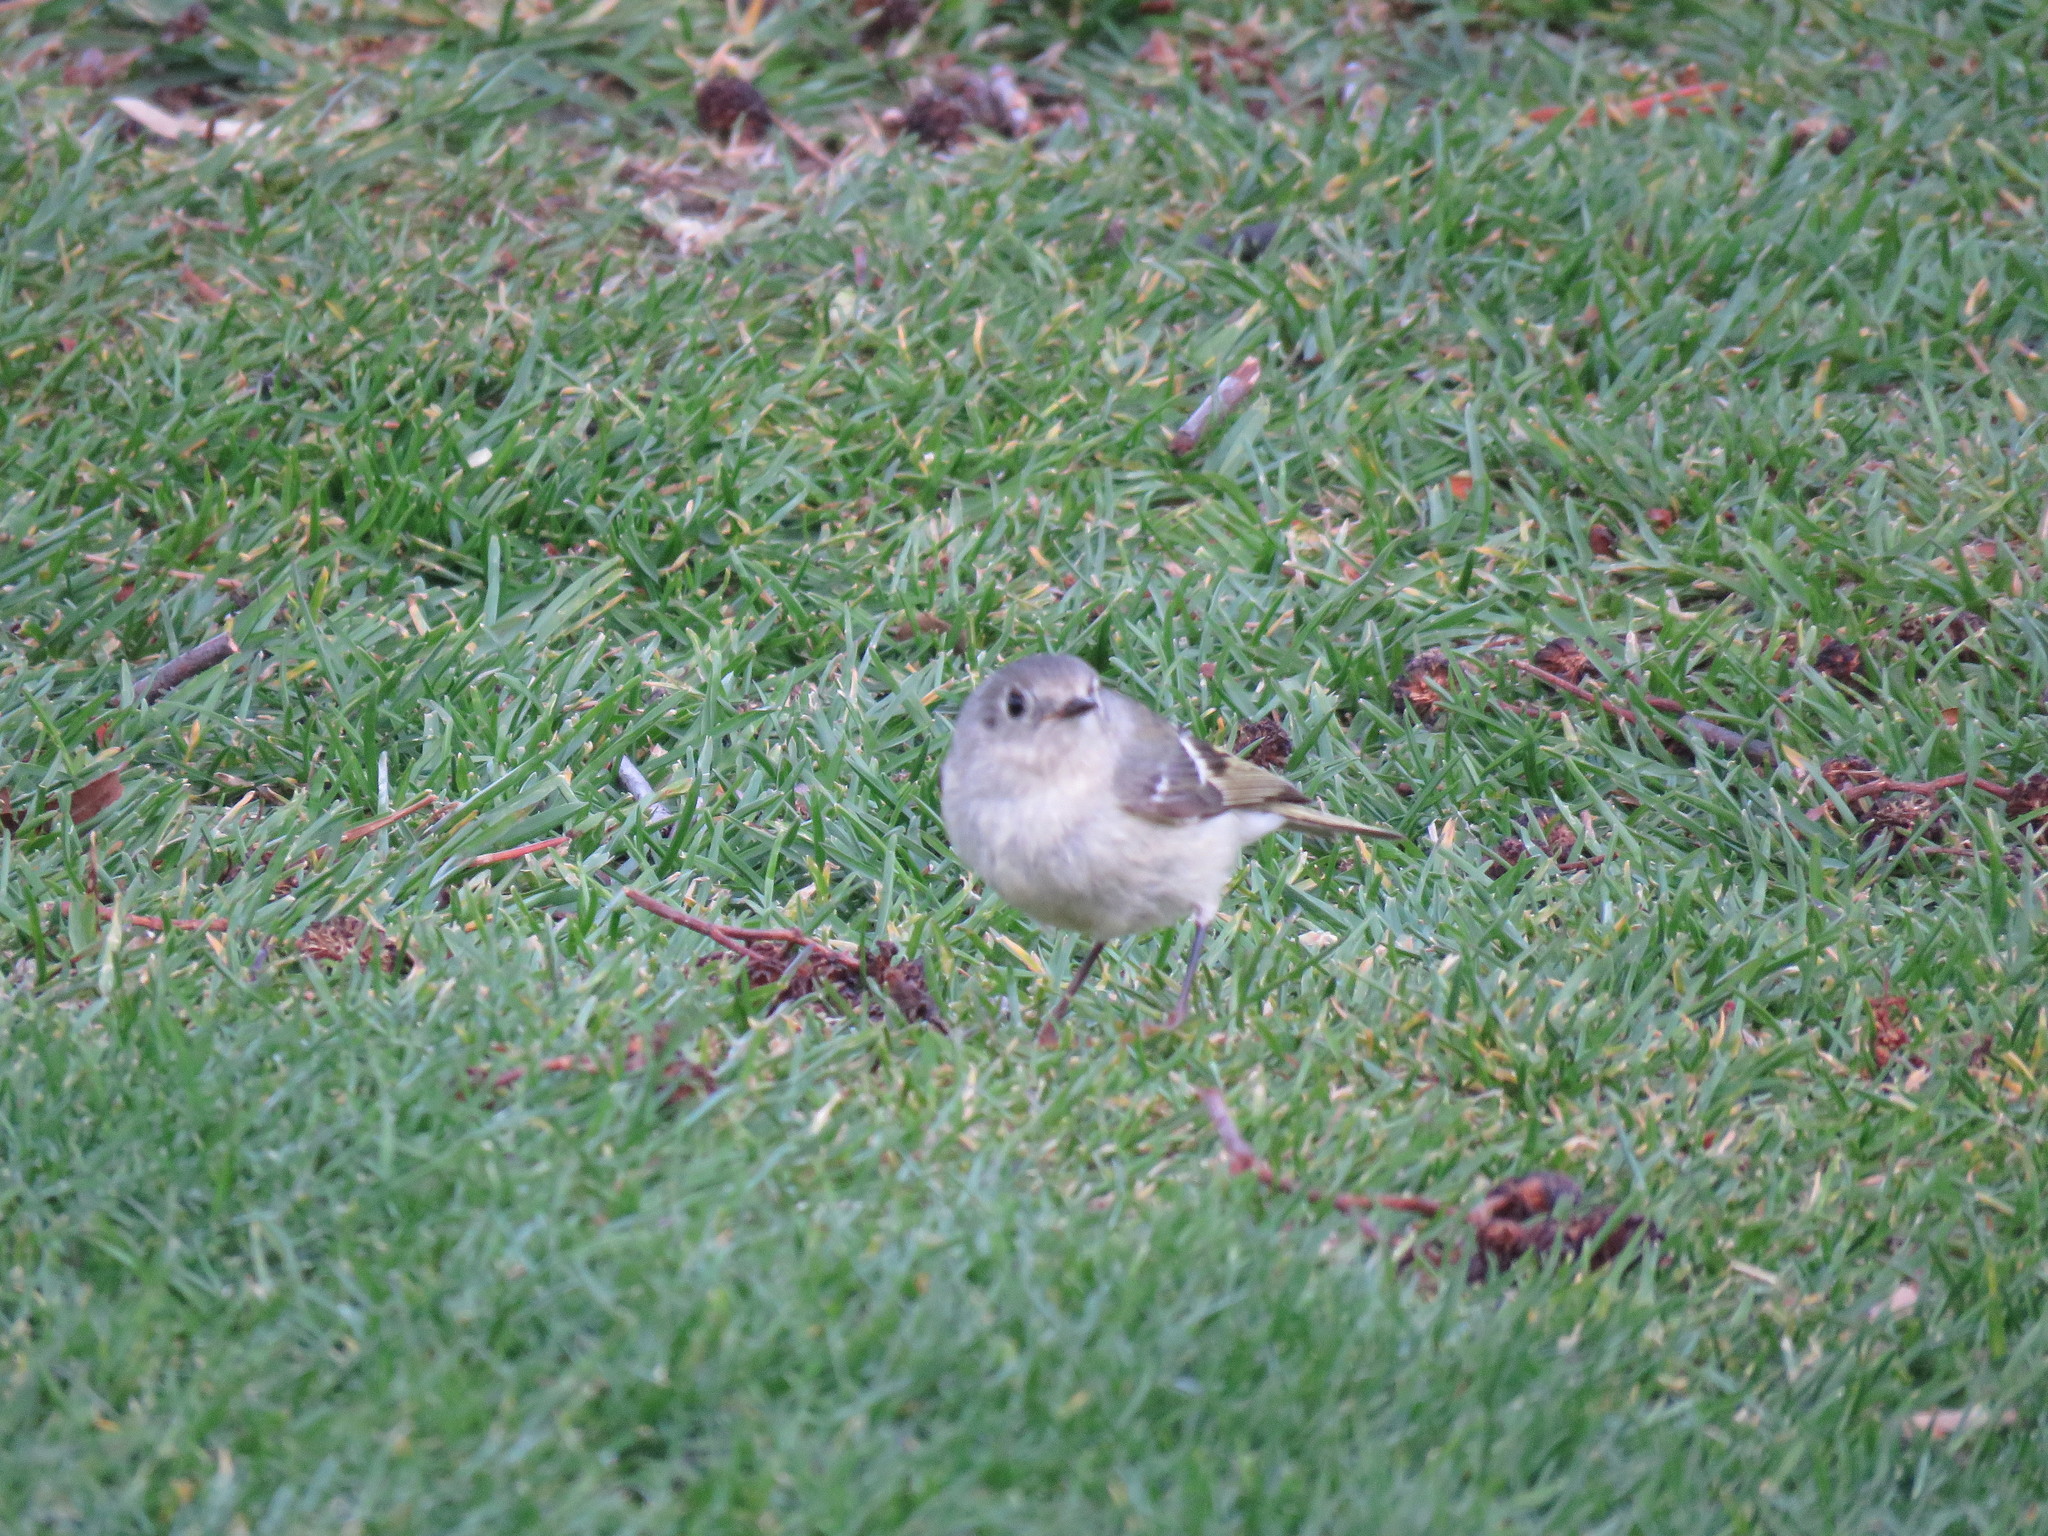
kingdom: Animalia
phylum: Chordata
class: Aves
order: Passeriformes
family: Regulidae
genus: Regulus
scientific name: Regulus calendula
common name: Ruby-crowned kinglet
